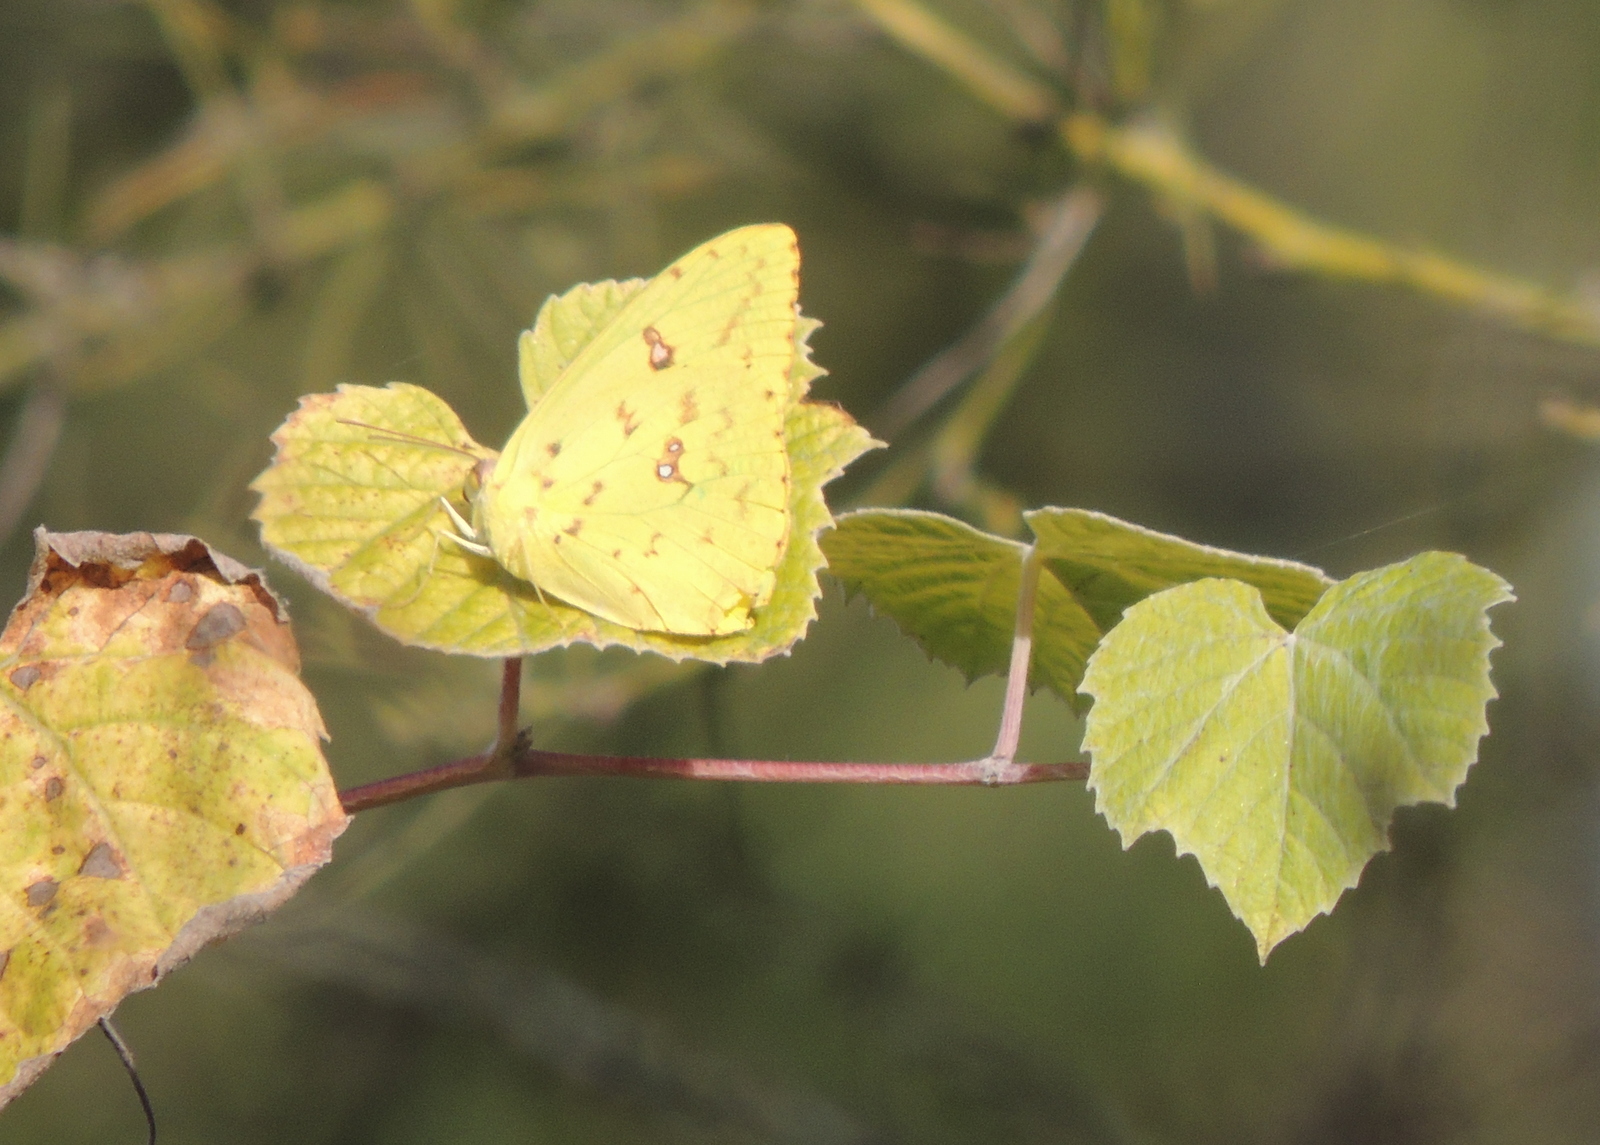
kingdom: Animalia
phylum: Arthropoda
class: Insecta
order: Lepidoptera
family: Pieridae
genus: Phoebis
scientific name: Phoebis sennae
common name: Cloudless sulphur
